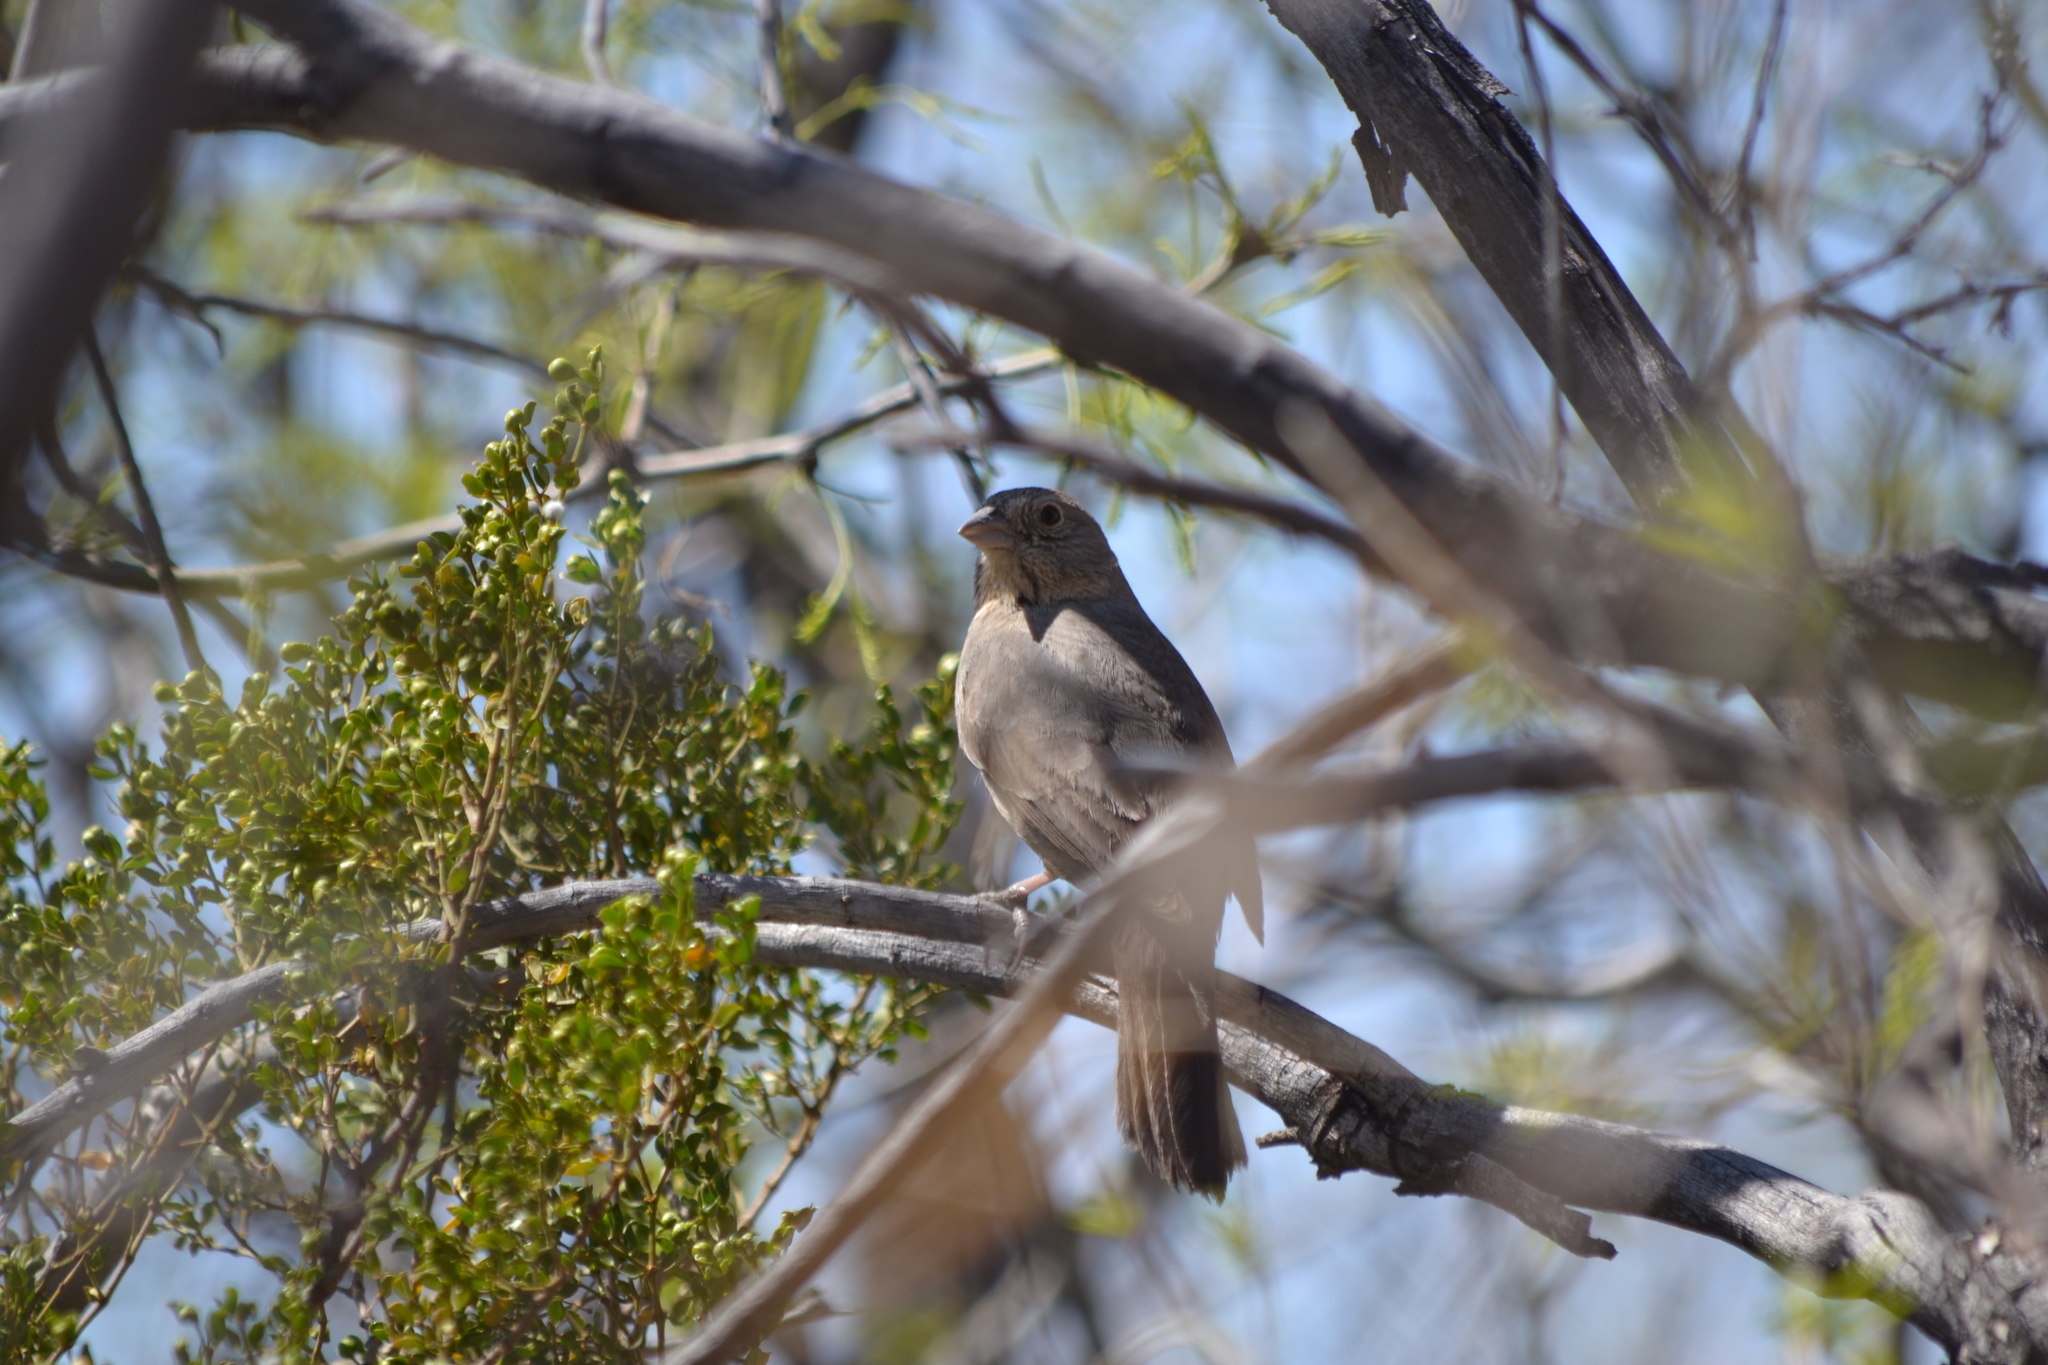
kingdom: Animalia
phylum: Chordata
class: Aves
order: Passeriformes
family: Passerellidae
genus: Melozone
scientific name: Melozone fusca
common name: Canyon towhee
